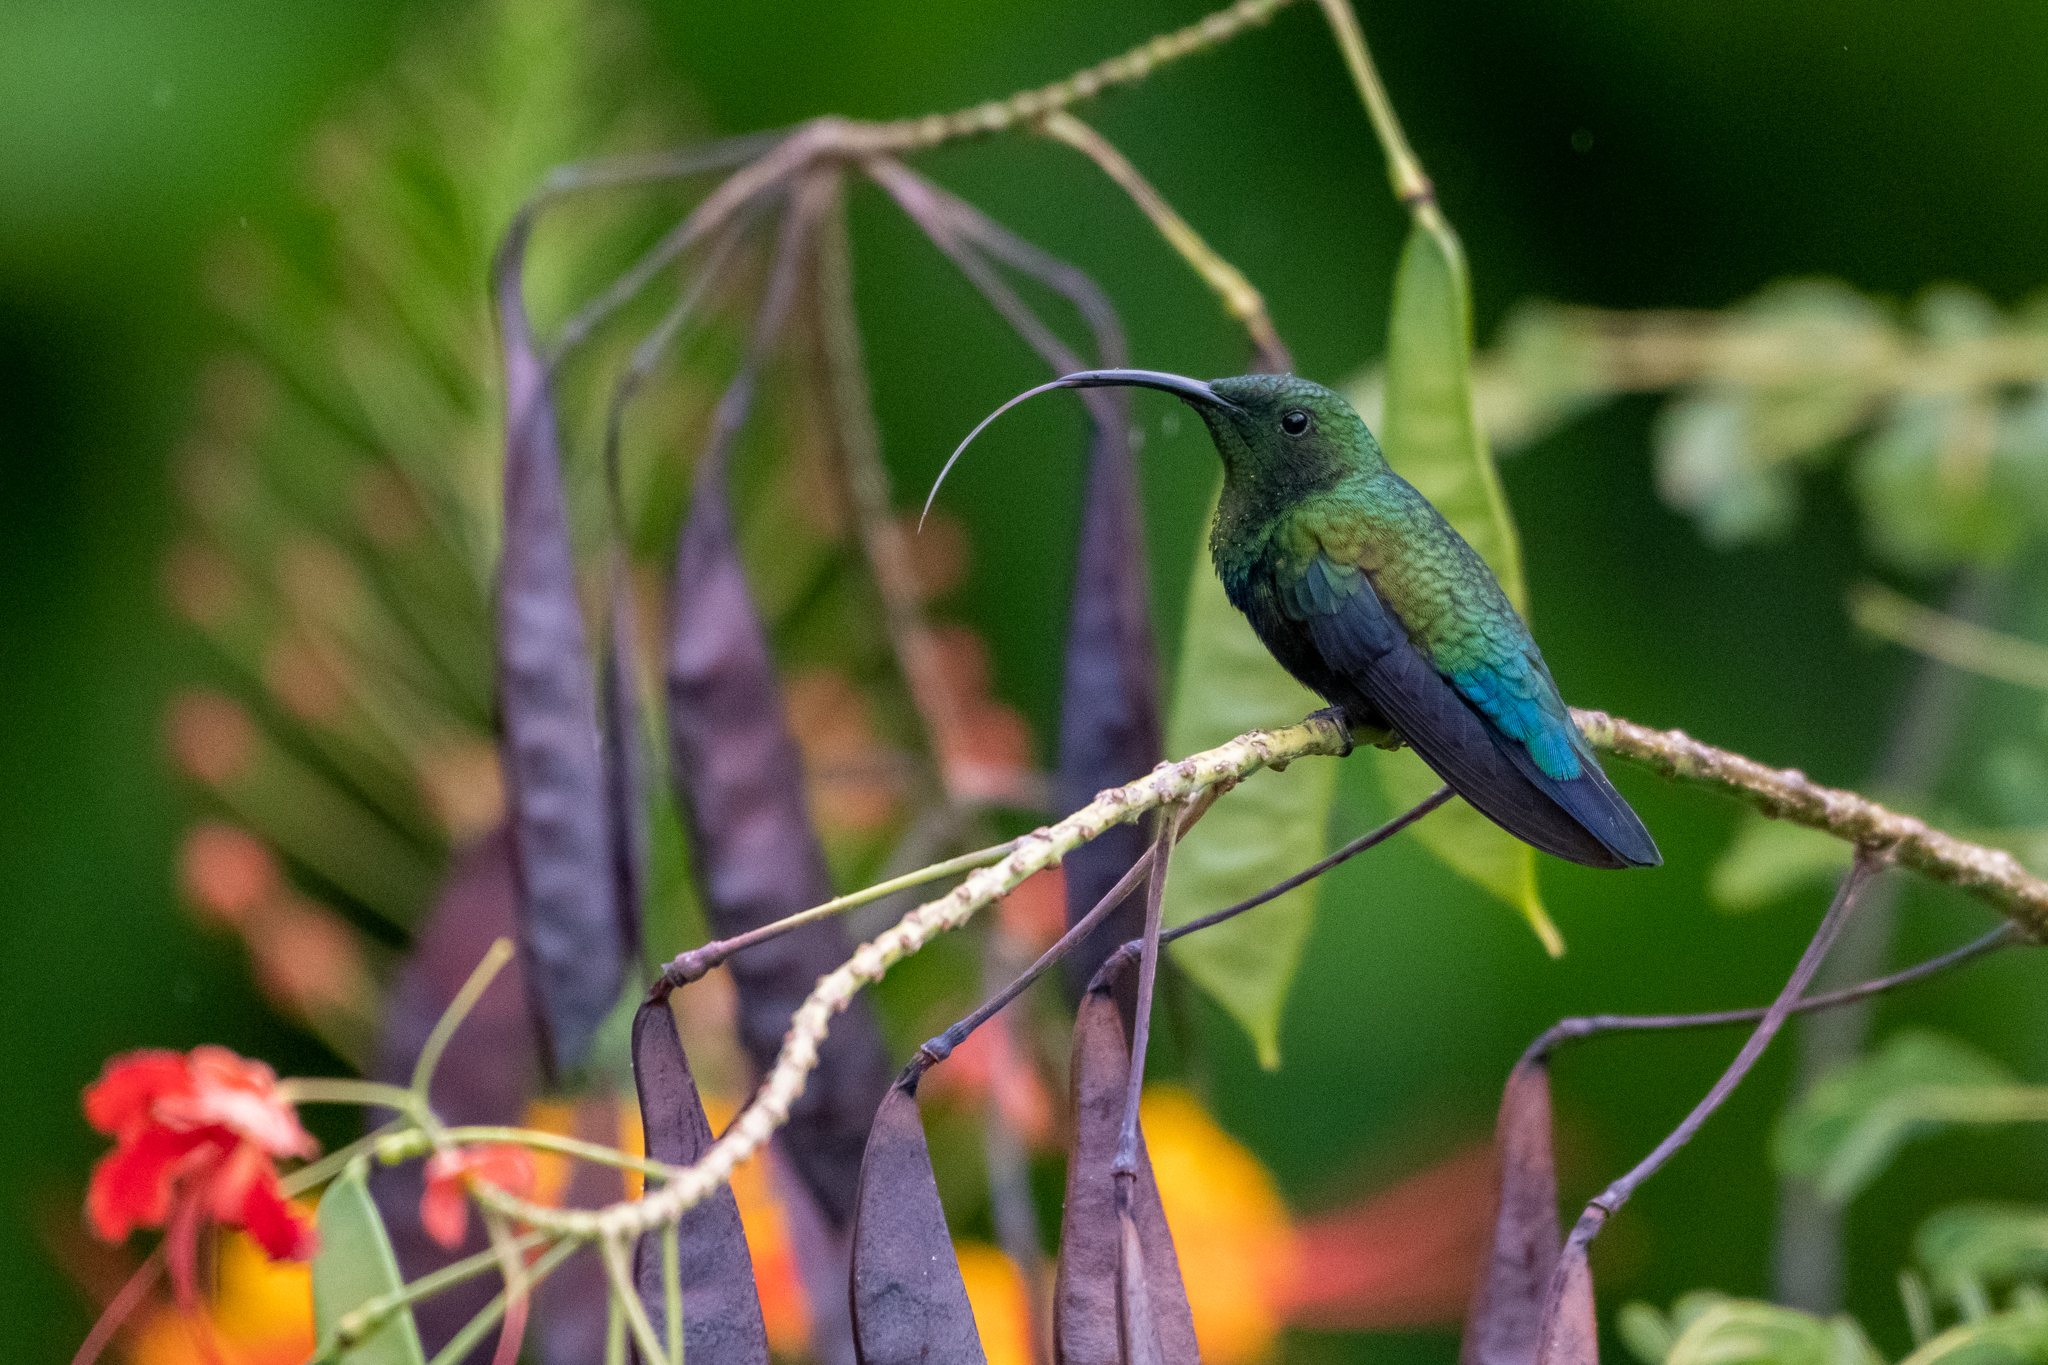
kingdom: Animalia
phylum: Chordata
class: Aves
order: Apodiformes
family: Trochilidae
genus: Eulampis
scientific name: Eulampis holosericeus
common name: Green-throated carib
